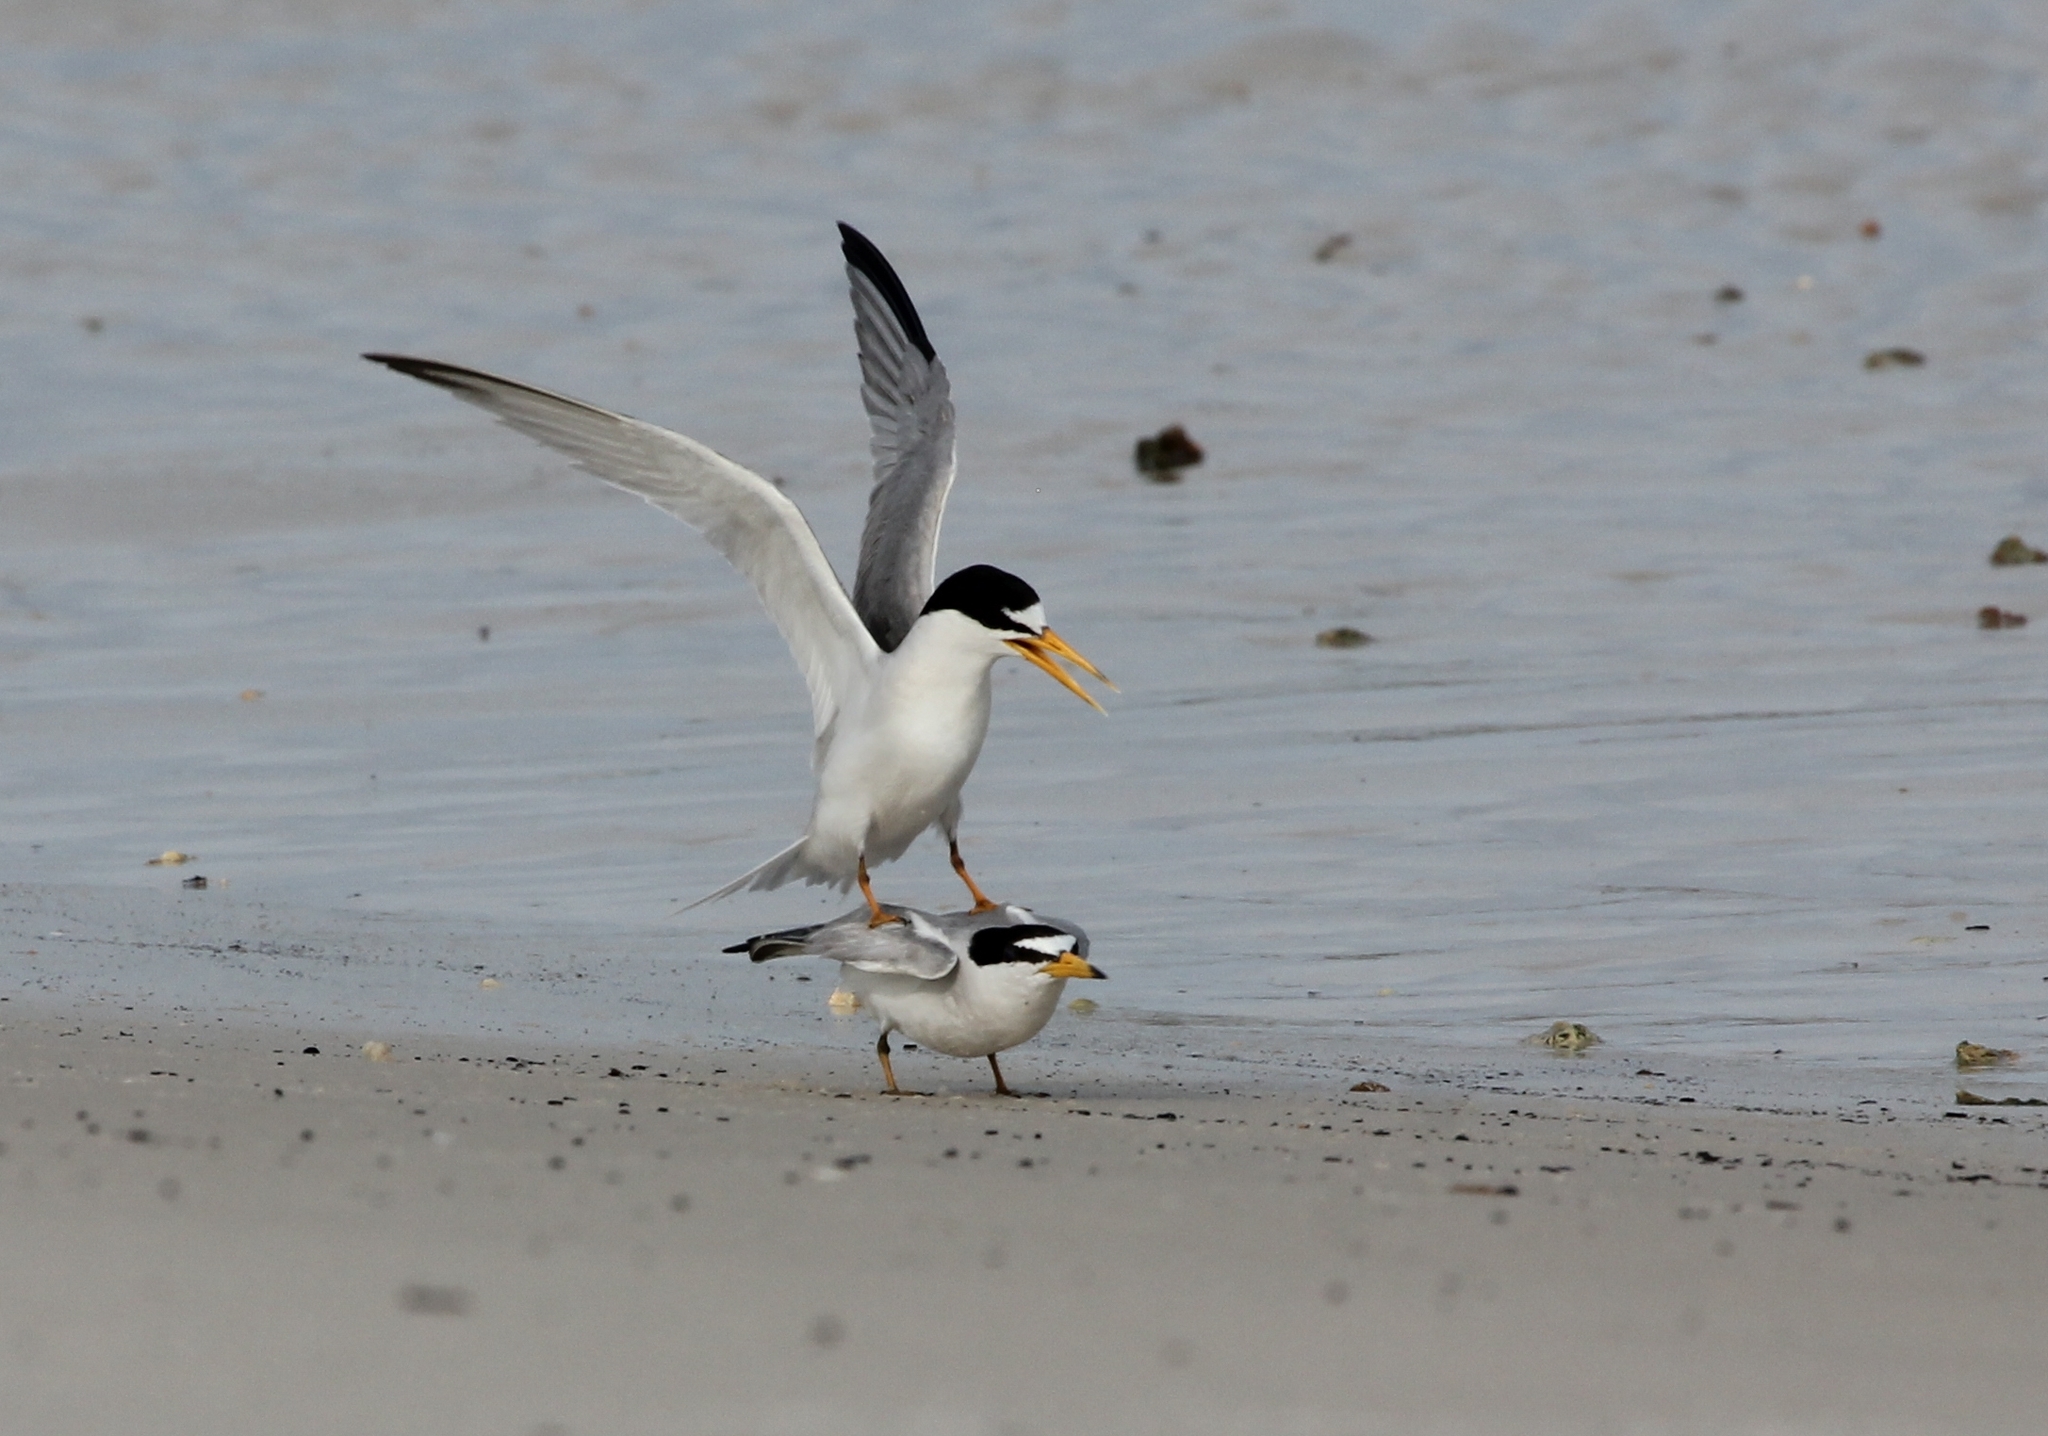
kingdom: Animalia
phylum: Chordata
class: Aves
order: Charadriiformes
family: Laridae
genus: Sternula
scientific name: Sternula antillarum
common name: Least tern
